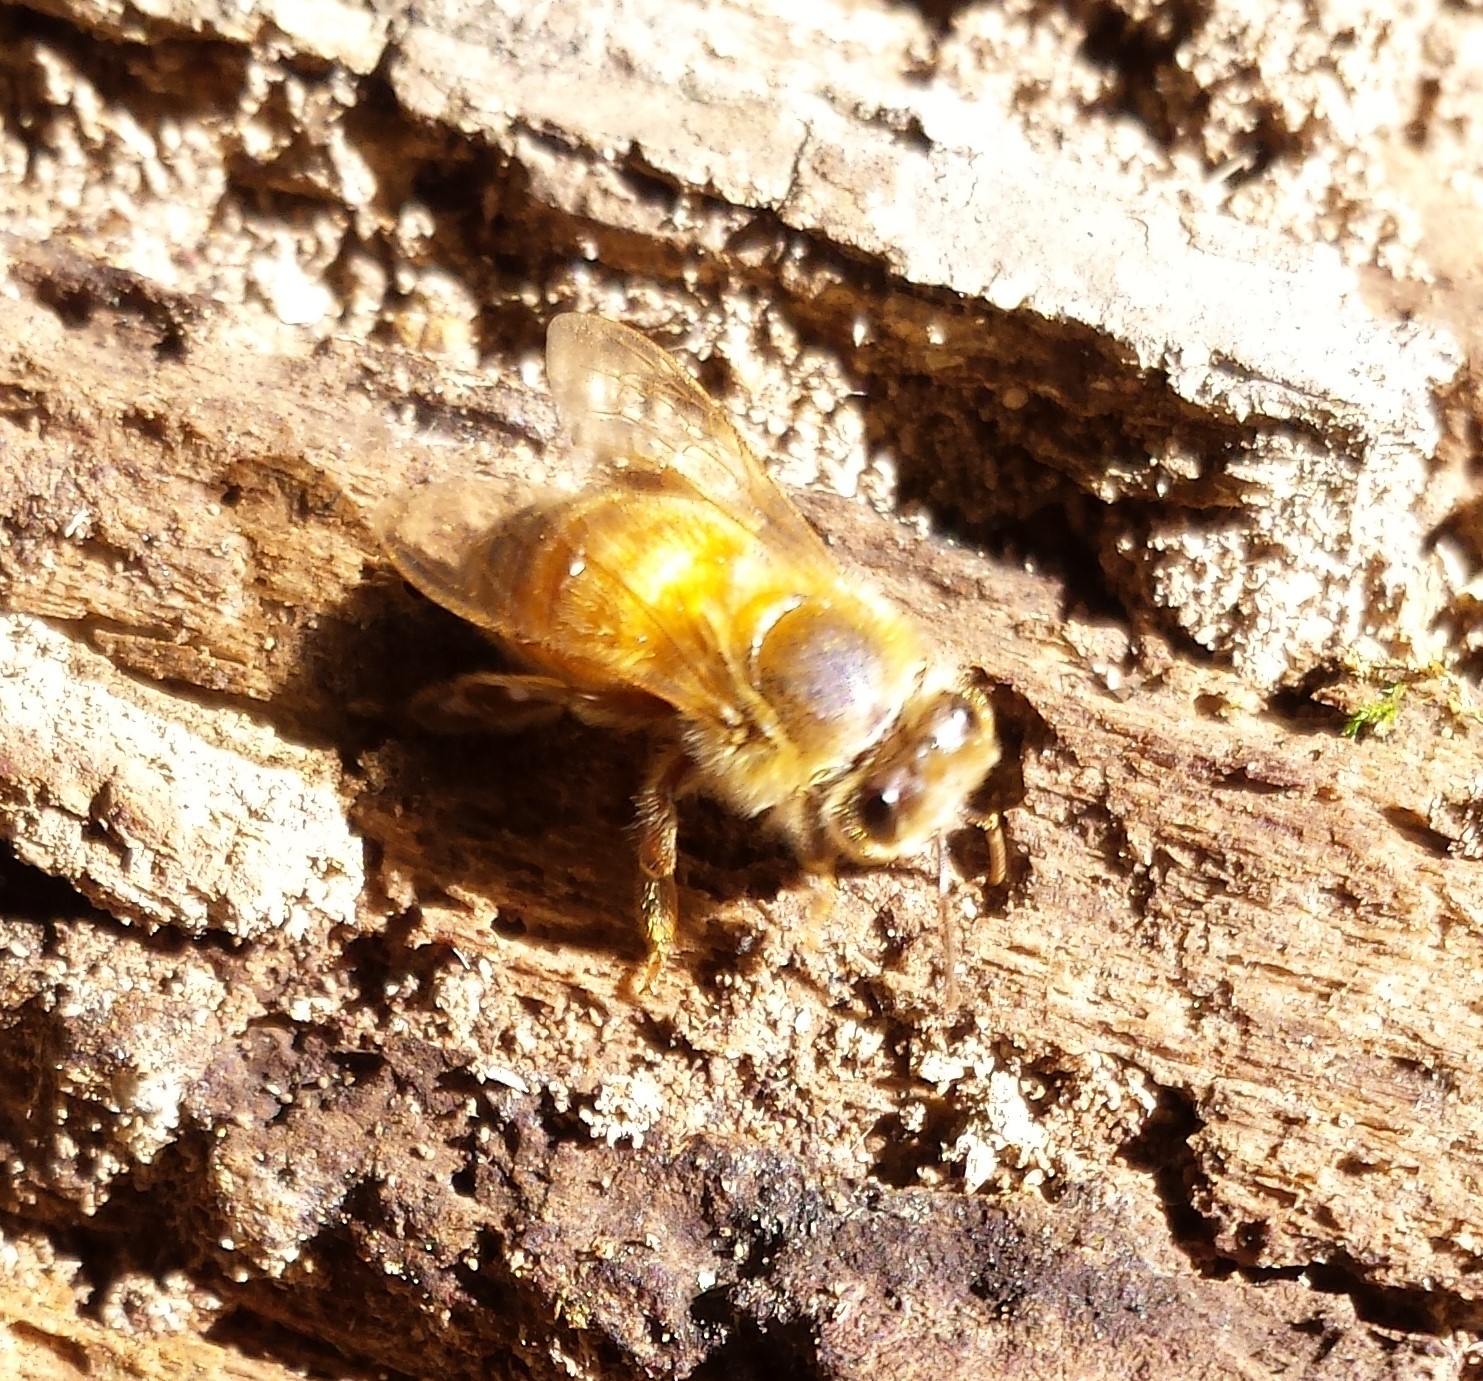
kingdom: Animalia
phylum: Arthropoda
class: Insecta
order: Hymenoptera
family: Apidae
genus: Apis
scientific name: Apis mellifera
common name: Honey bee
